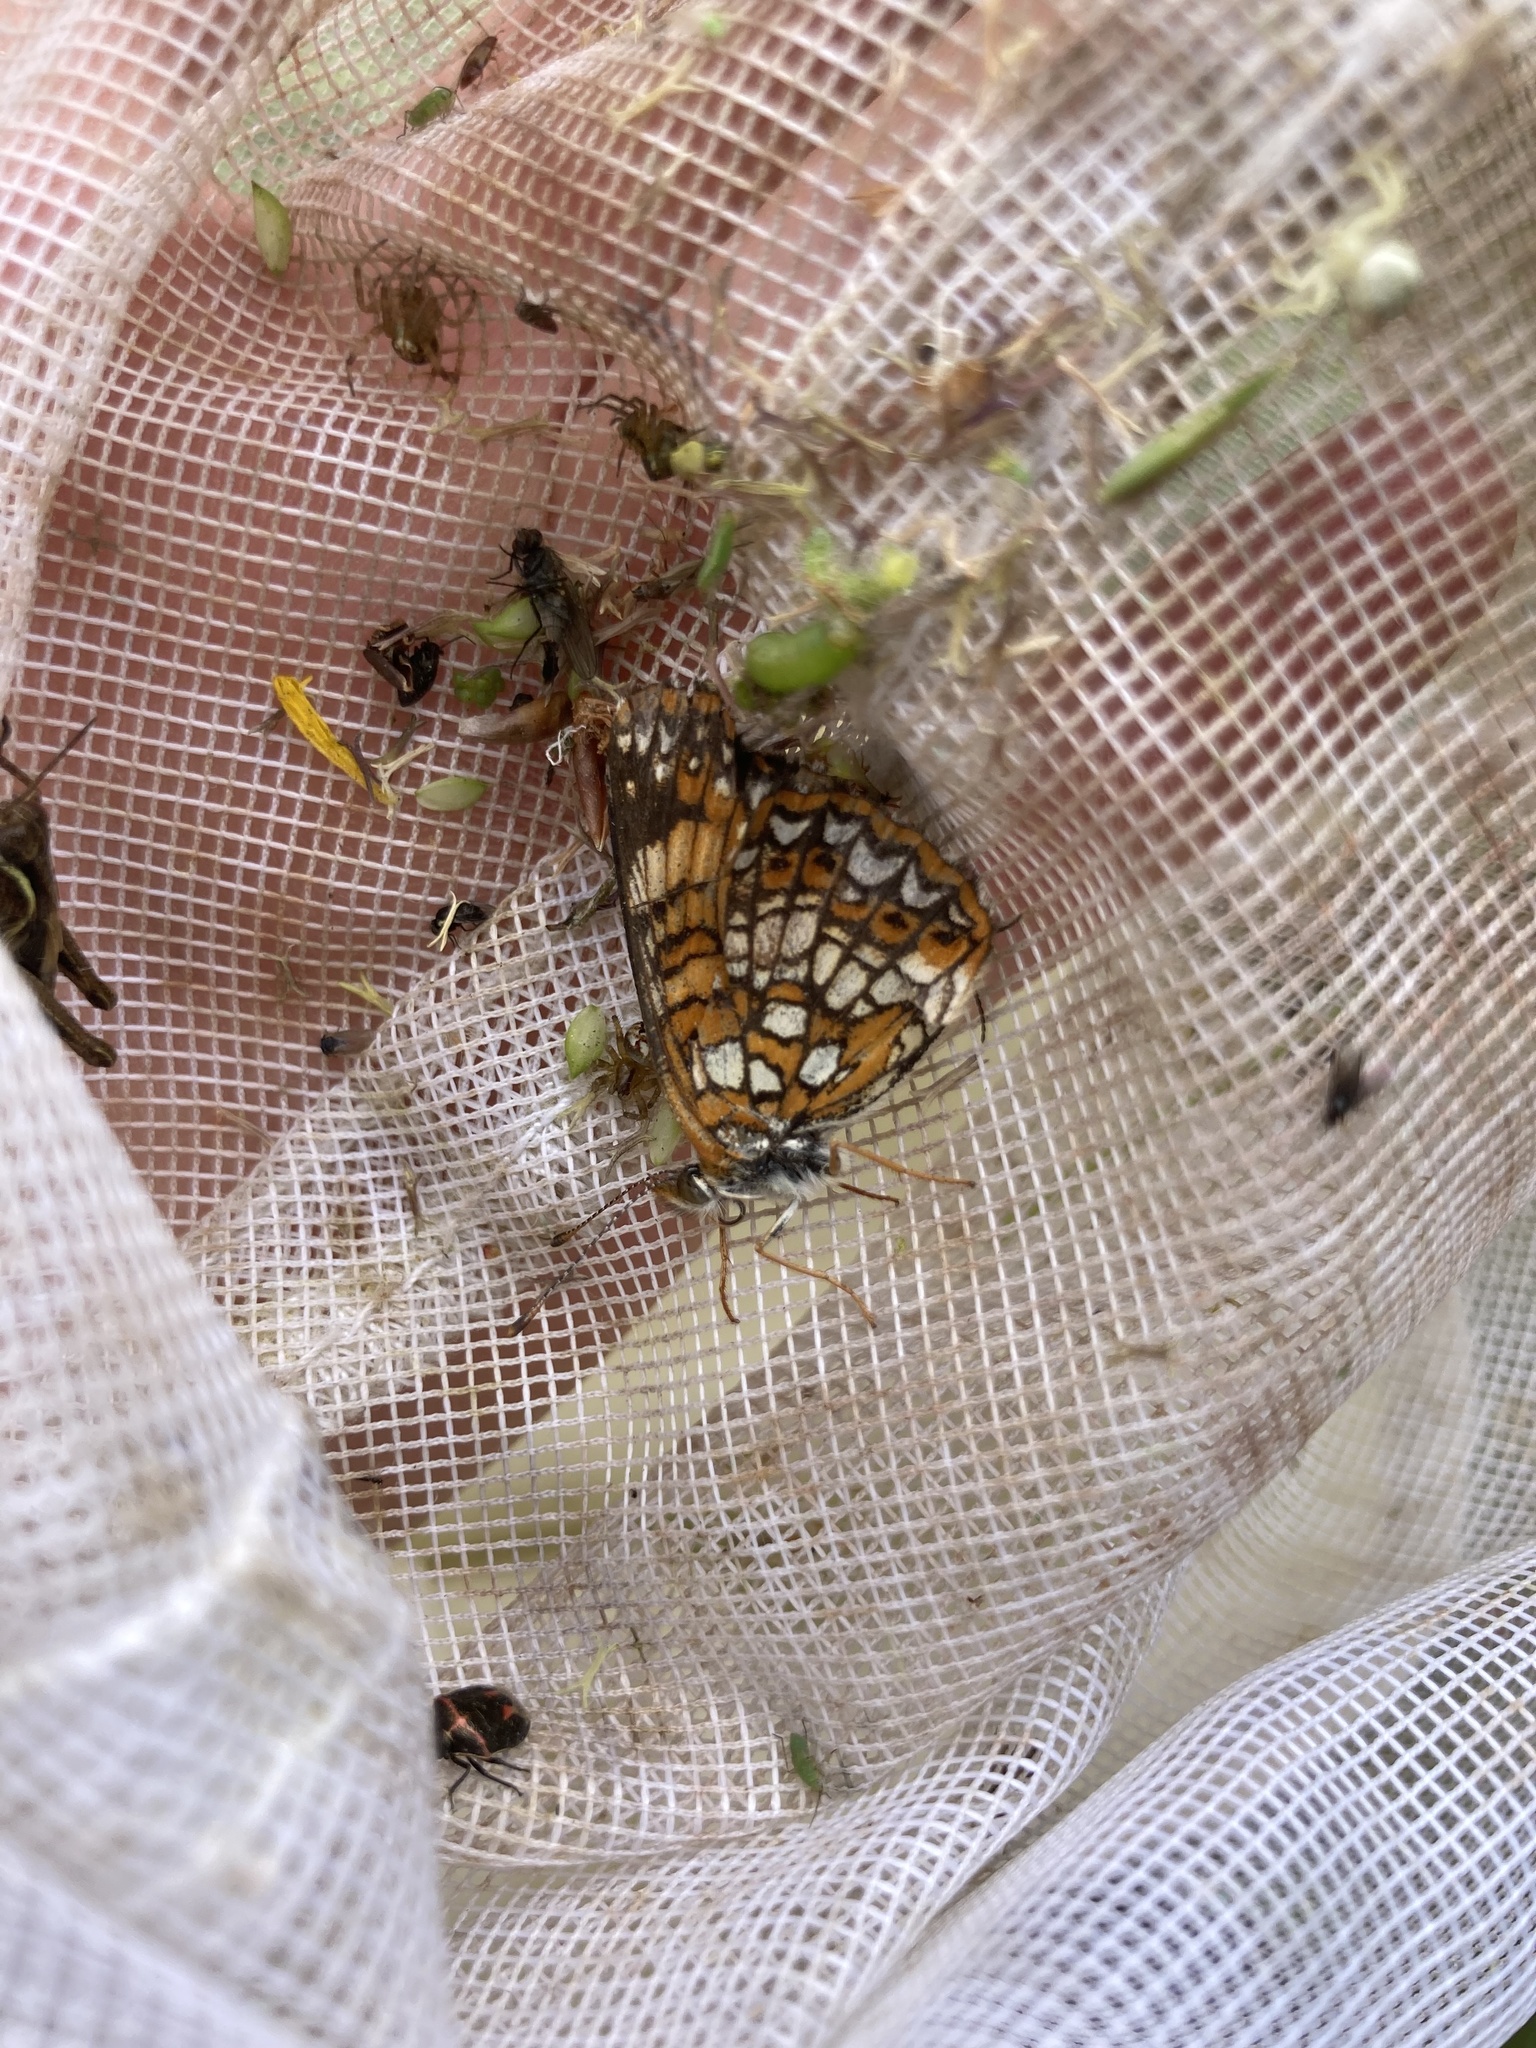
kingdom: Animalia
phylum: Arthropoda
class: Insecta
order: Lepidoptera
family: Nymphalidae
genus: Chlosyne
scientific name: Chlosyne harrisii
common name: Harris's checkerspot
